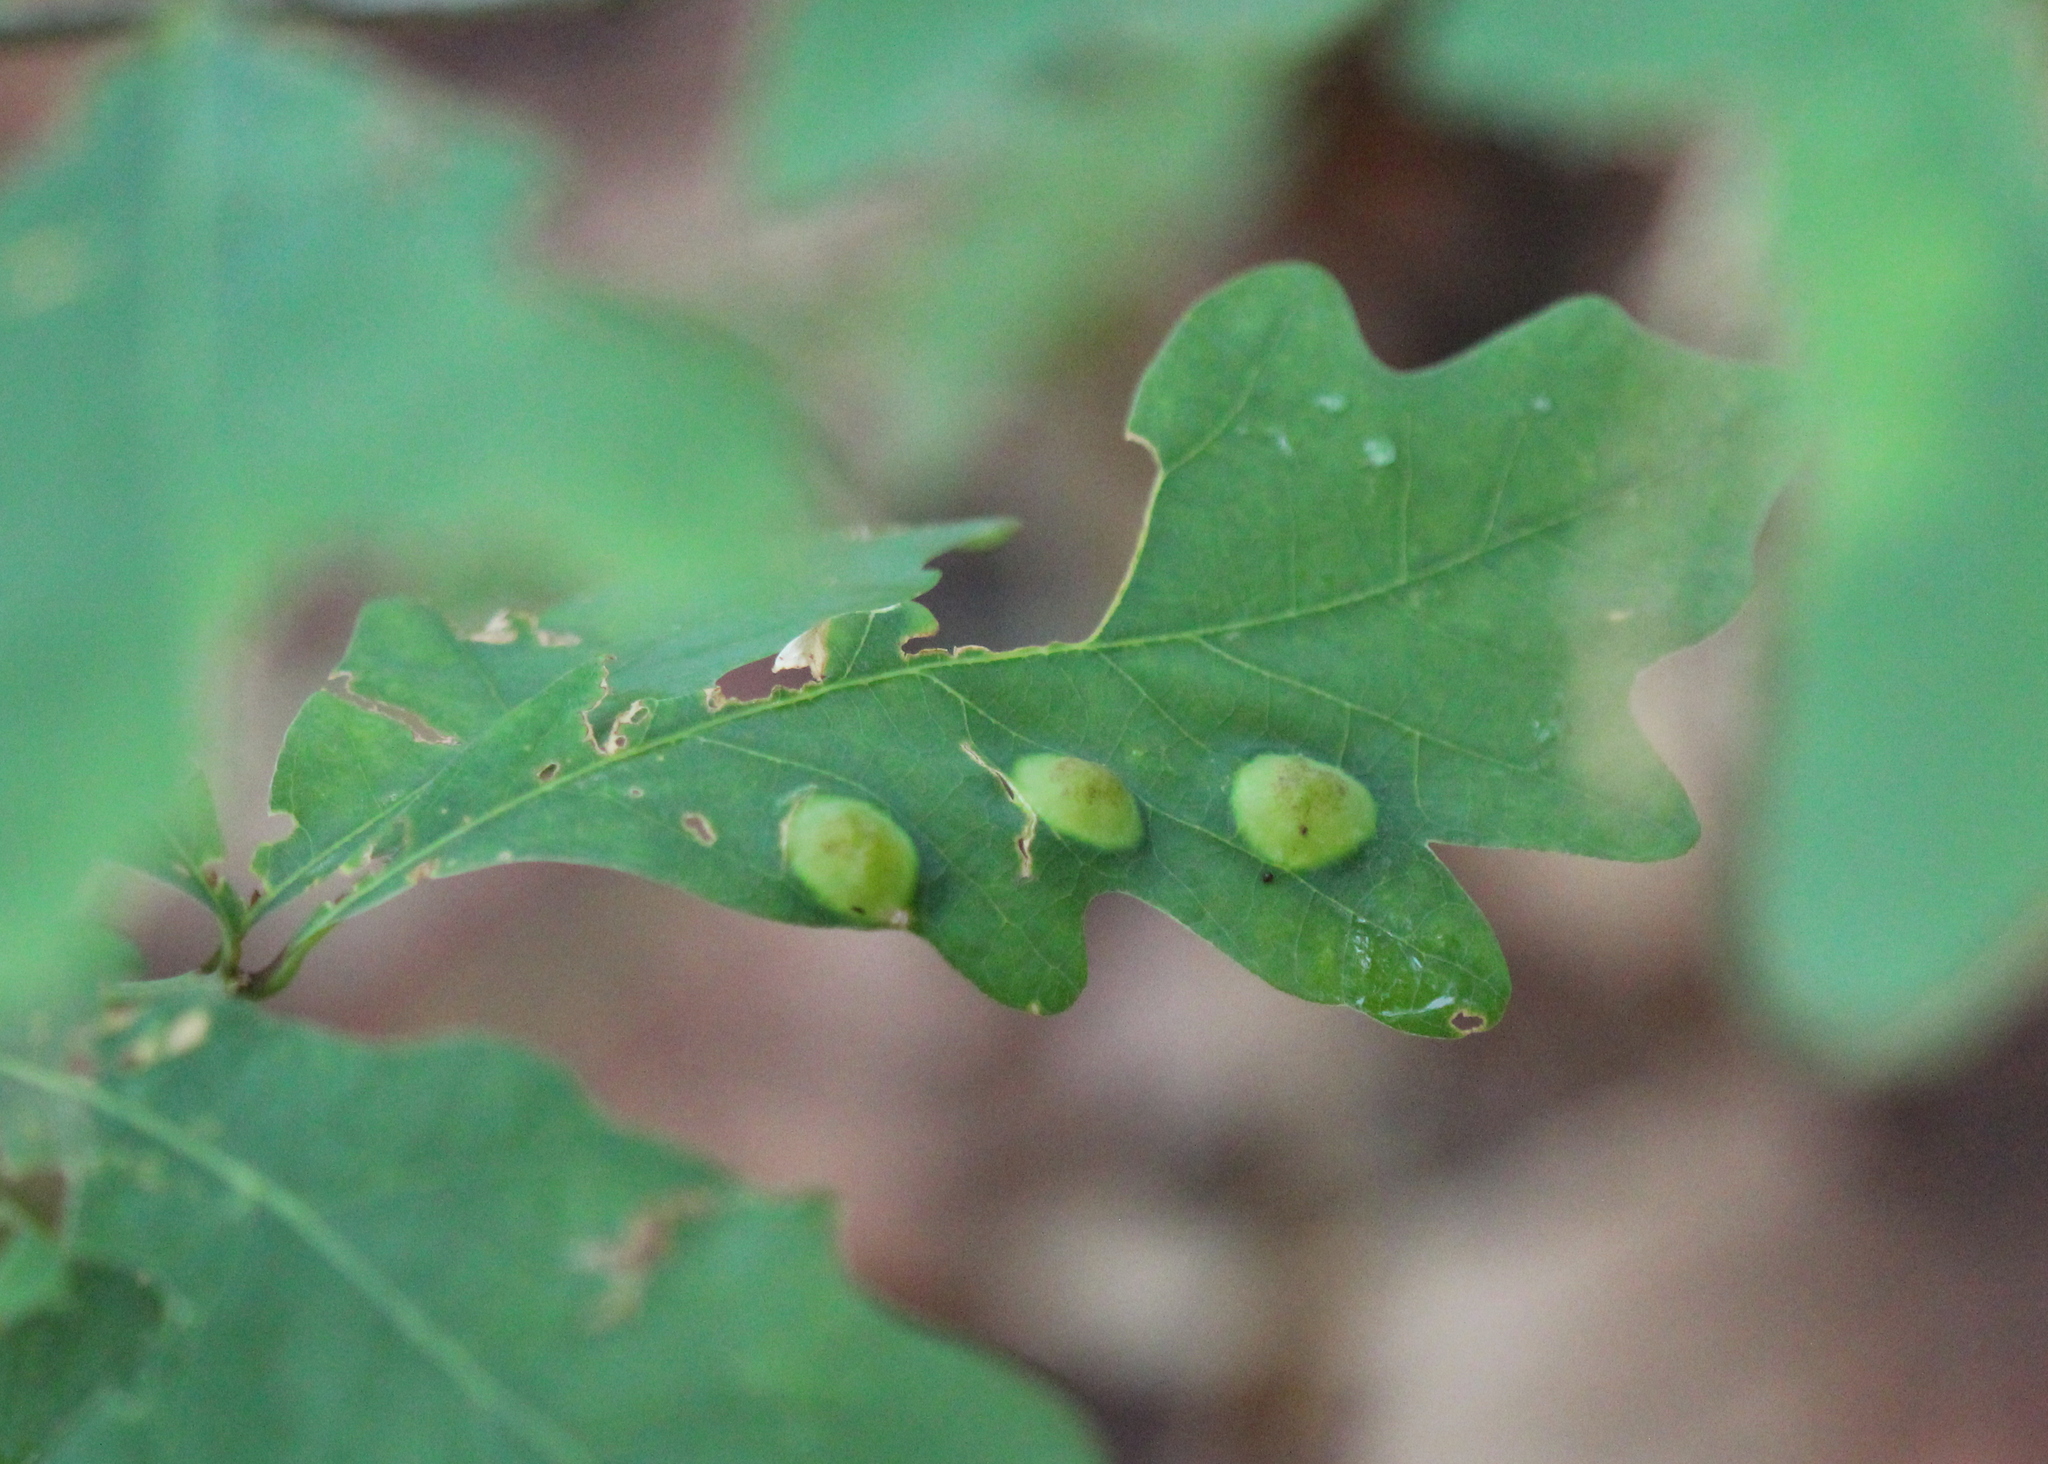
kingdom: Animalia
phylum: Arthropoda
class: Insecta
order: Hymenoptera
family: Cynipidae
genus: Callirhytis
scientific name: Callirhytis
